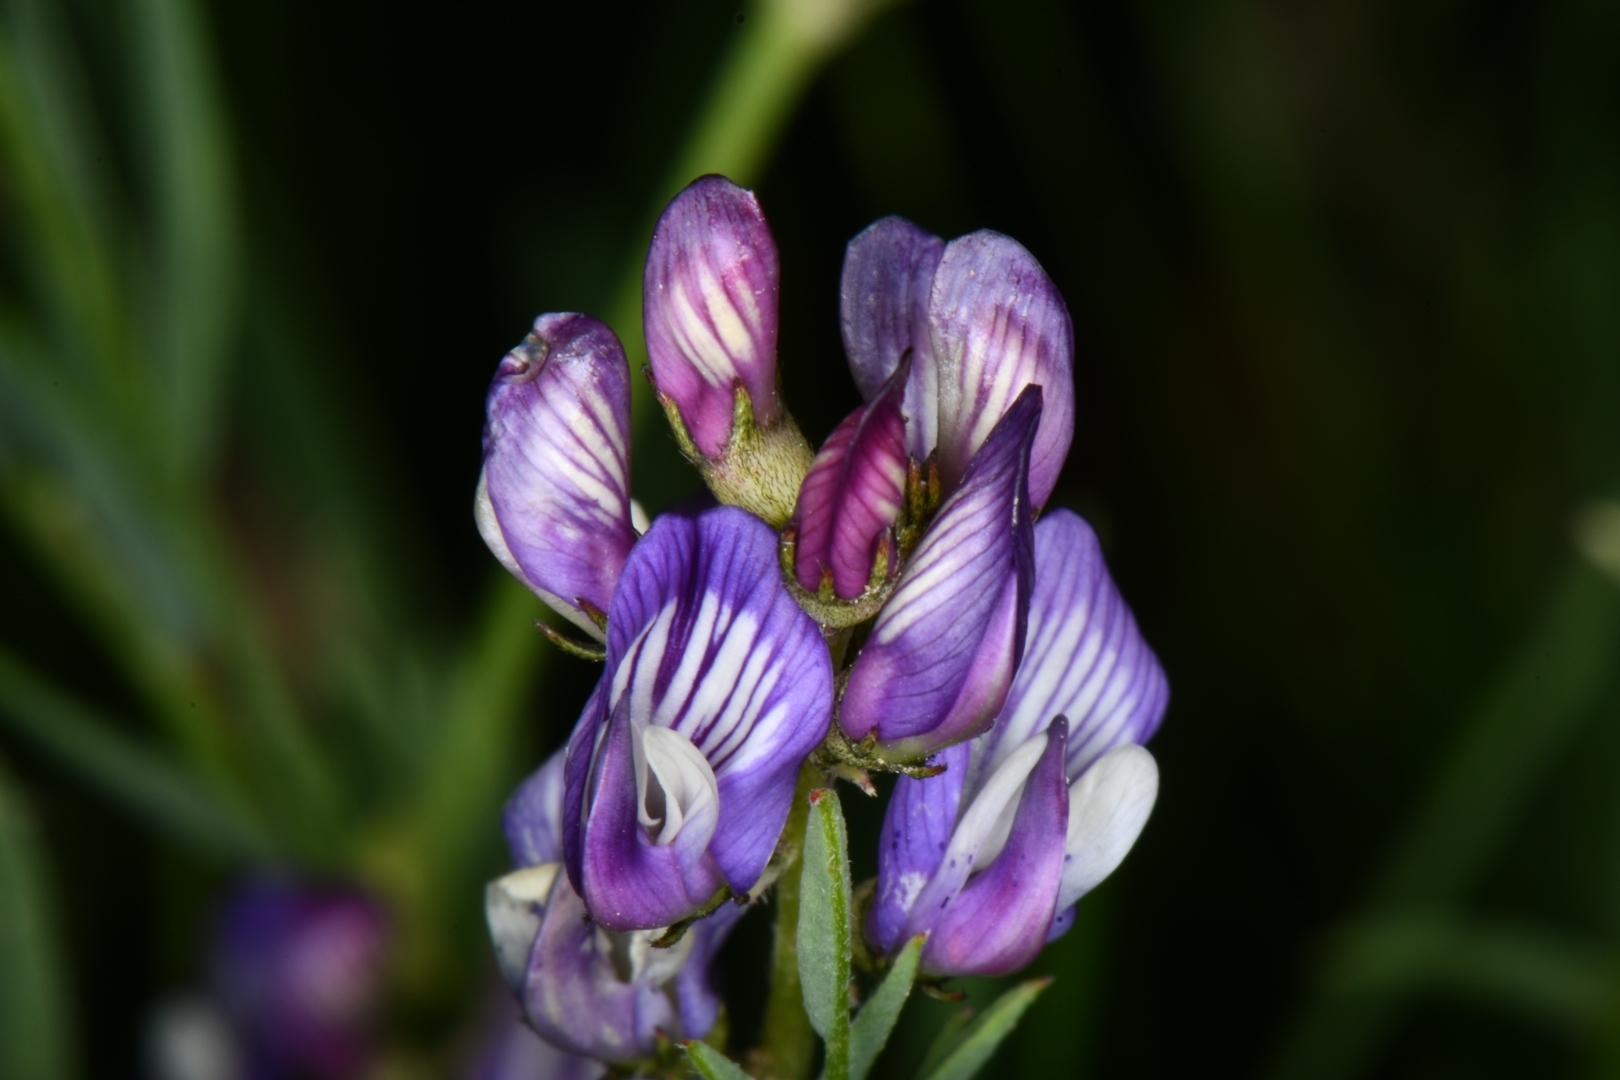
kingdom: Plantae
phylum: Tracheophyta
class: Magnoliopsida
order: Fabales
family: Fabaceae
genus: Astragalus
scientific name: Astragalus miser
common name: Timber milkvetch
